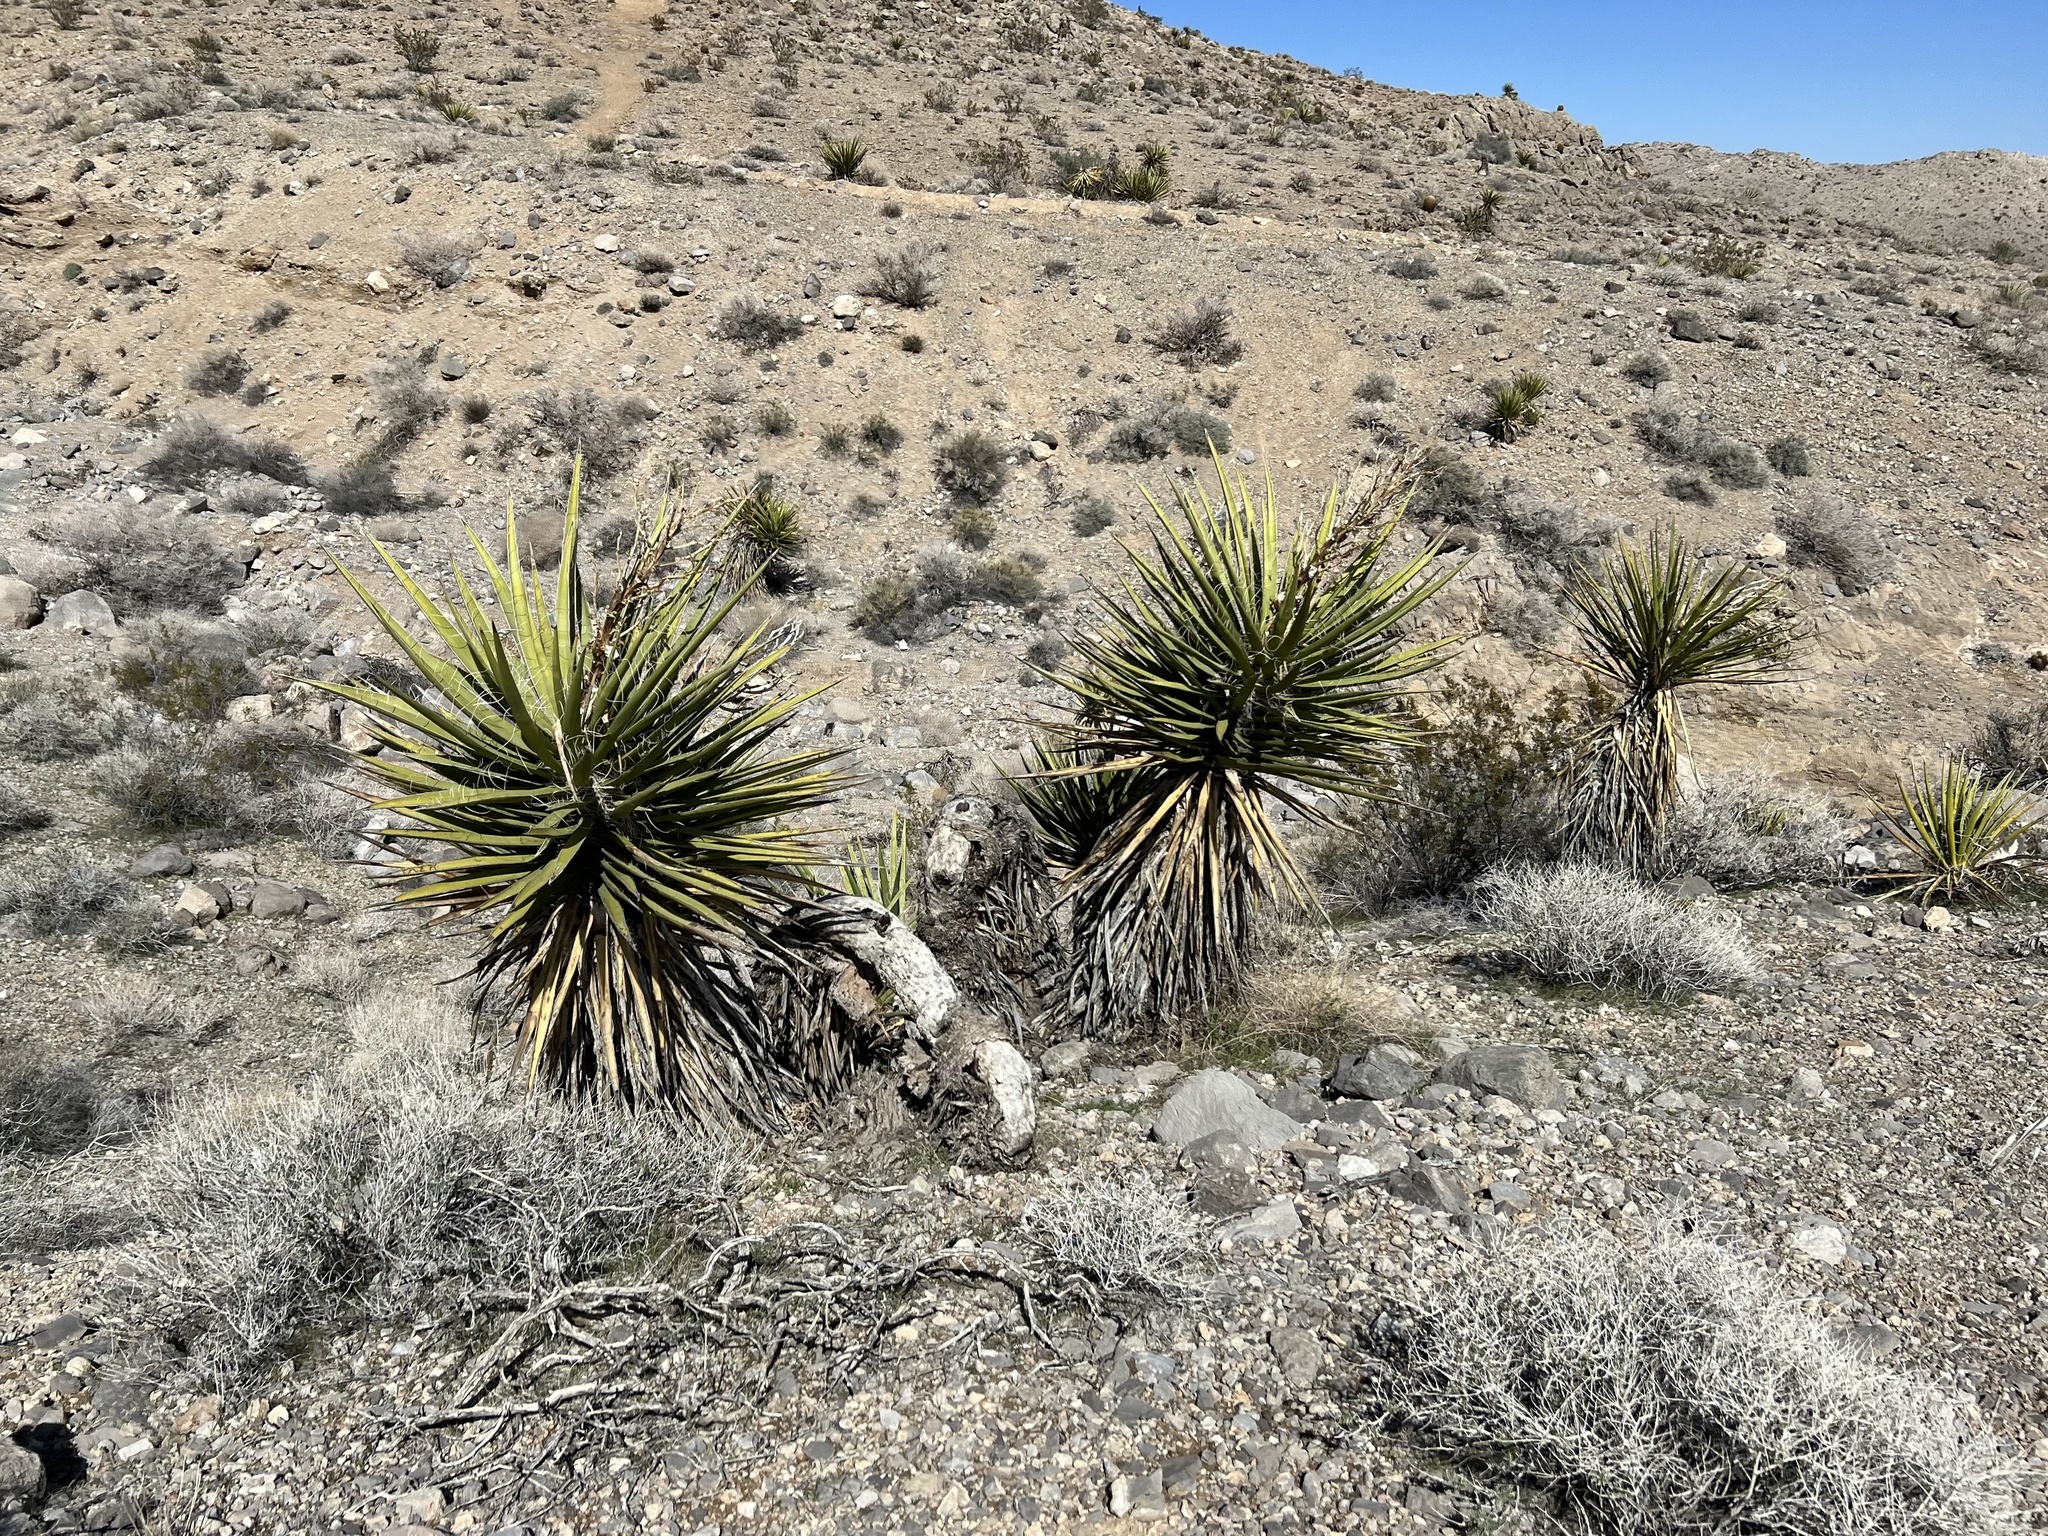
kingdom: Plantae
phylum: Tracheophyta
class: Liliopsida
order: Asparagales
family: Asparagaceae
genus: Yucca
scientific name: Yucca schidigera
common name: Mojave yucca
